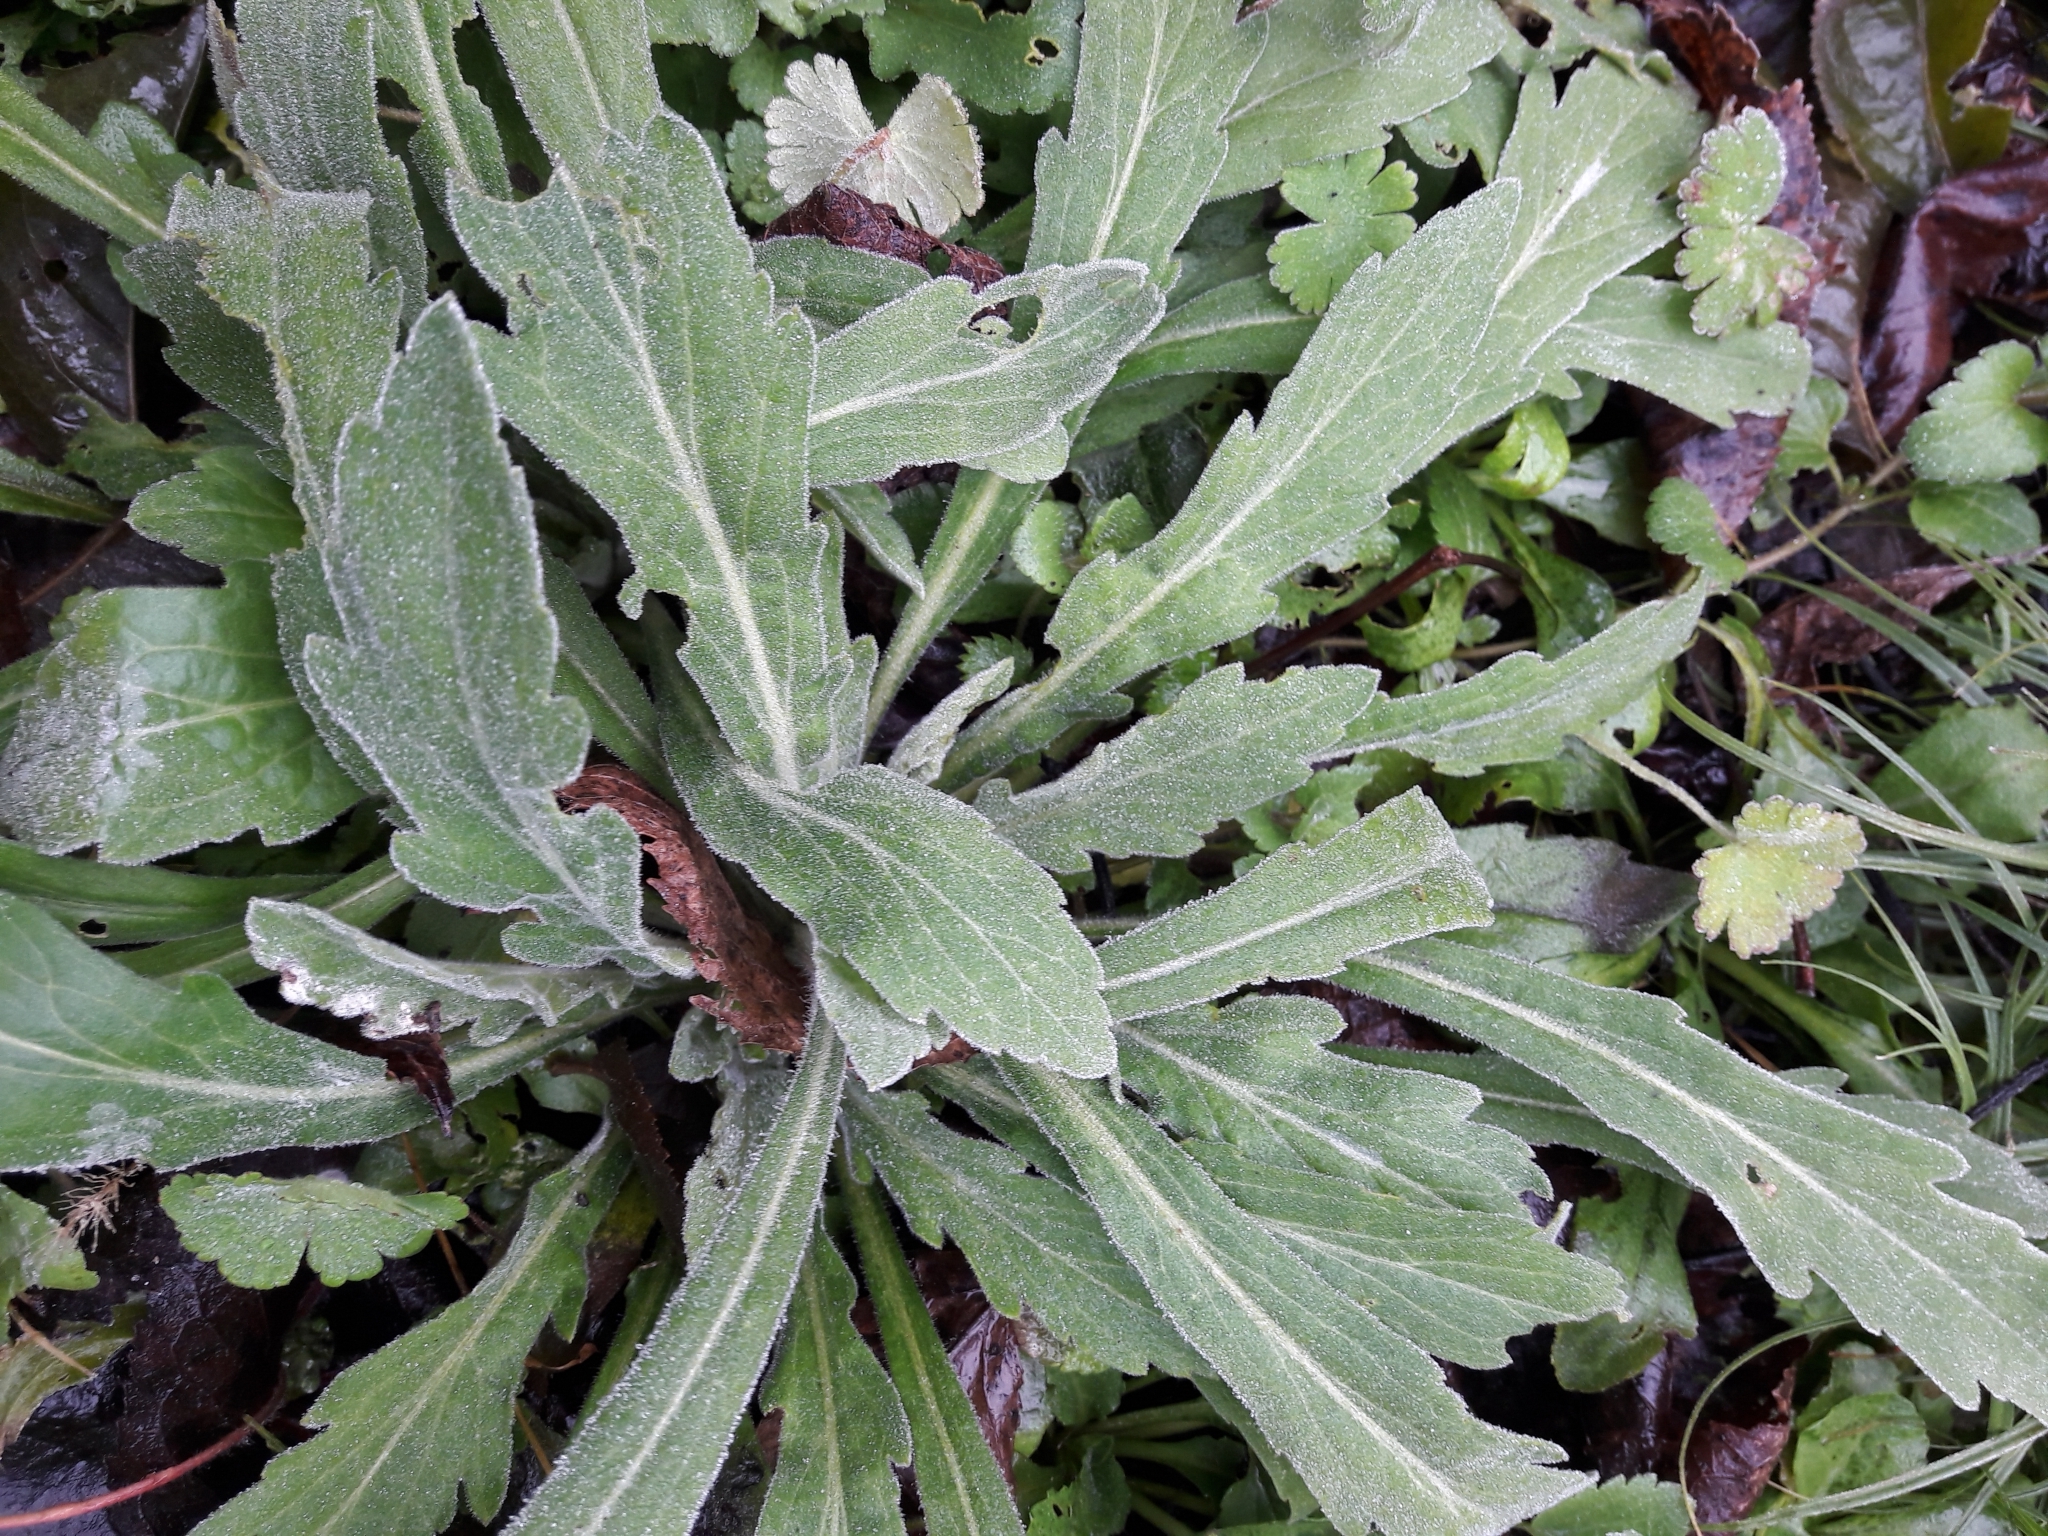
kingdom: Plantae
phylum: Tracheophyta
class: Magnoliopsida
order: Asterales
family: Asteraceae
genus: Erigeron
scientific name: Erigeron sumatrensis
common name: Daisy
